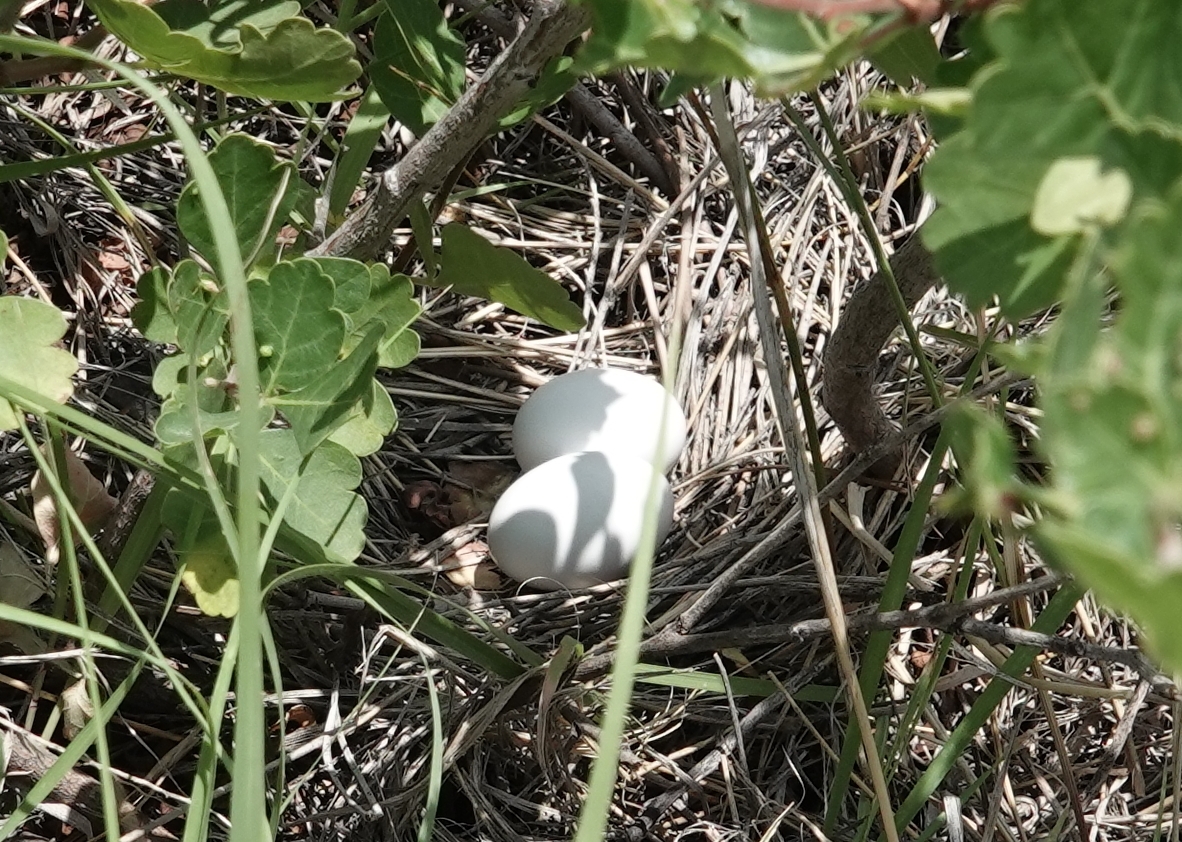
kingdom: Animalia
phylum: Chordata
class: Aves
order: Columbiformes
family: Columbidae
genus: Zenaida
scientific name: Zenaida macroura
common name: Mourning dove
